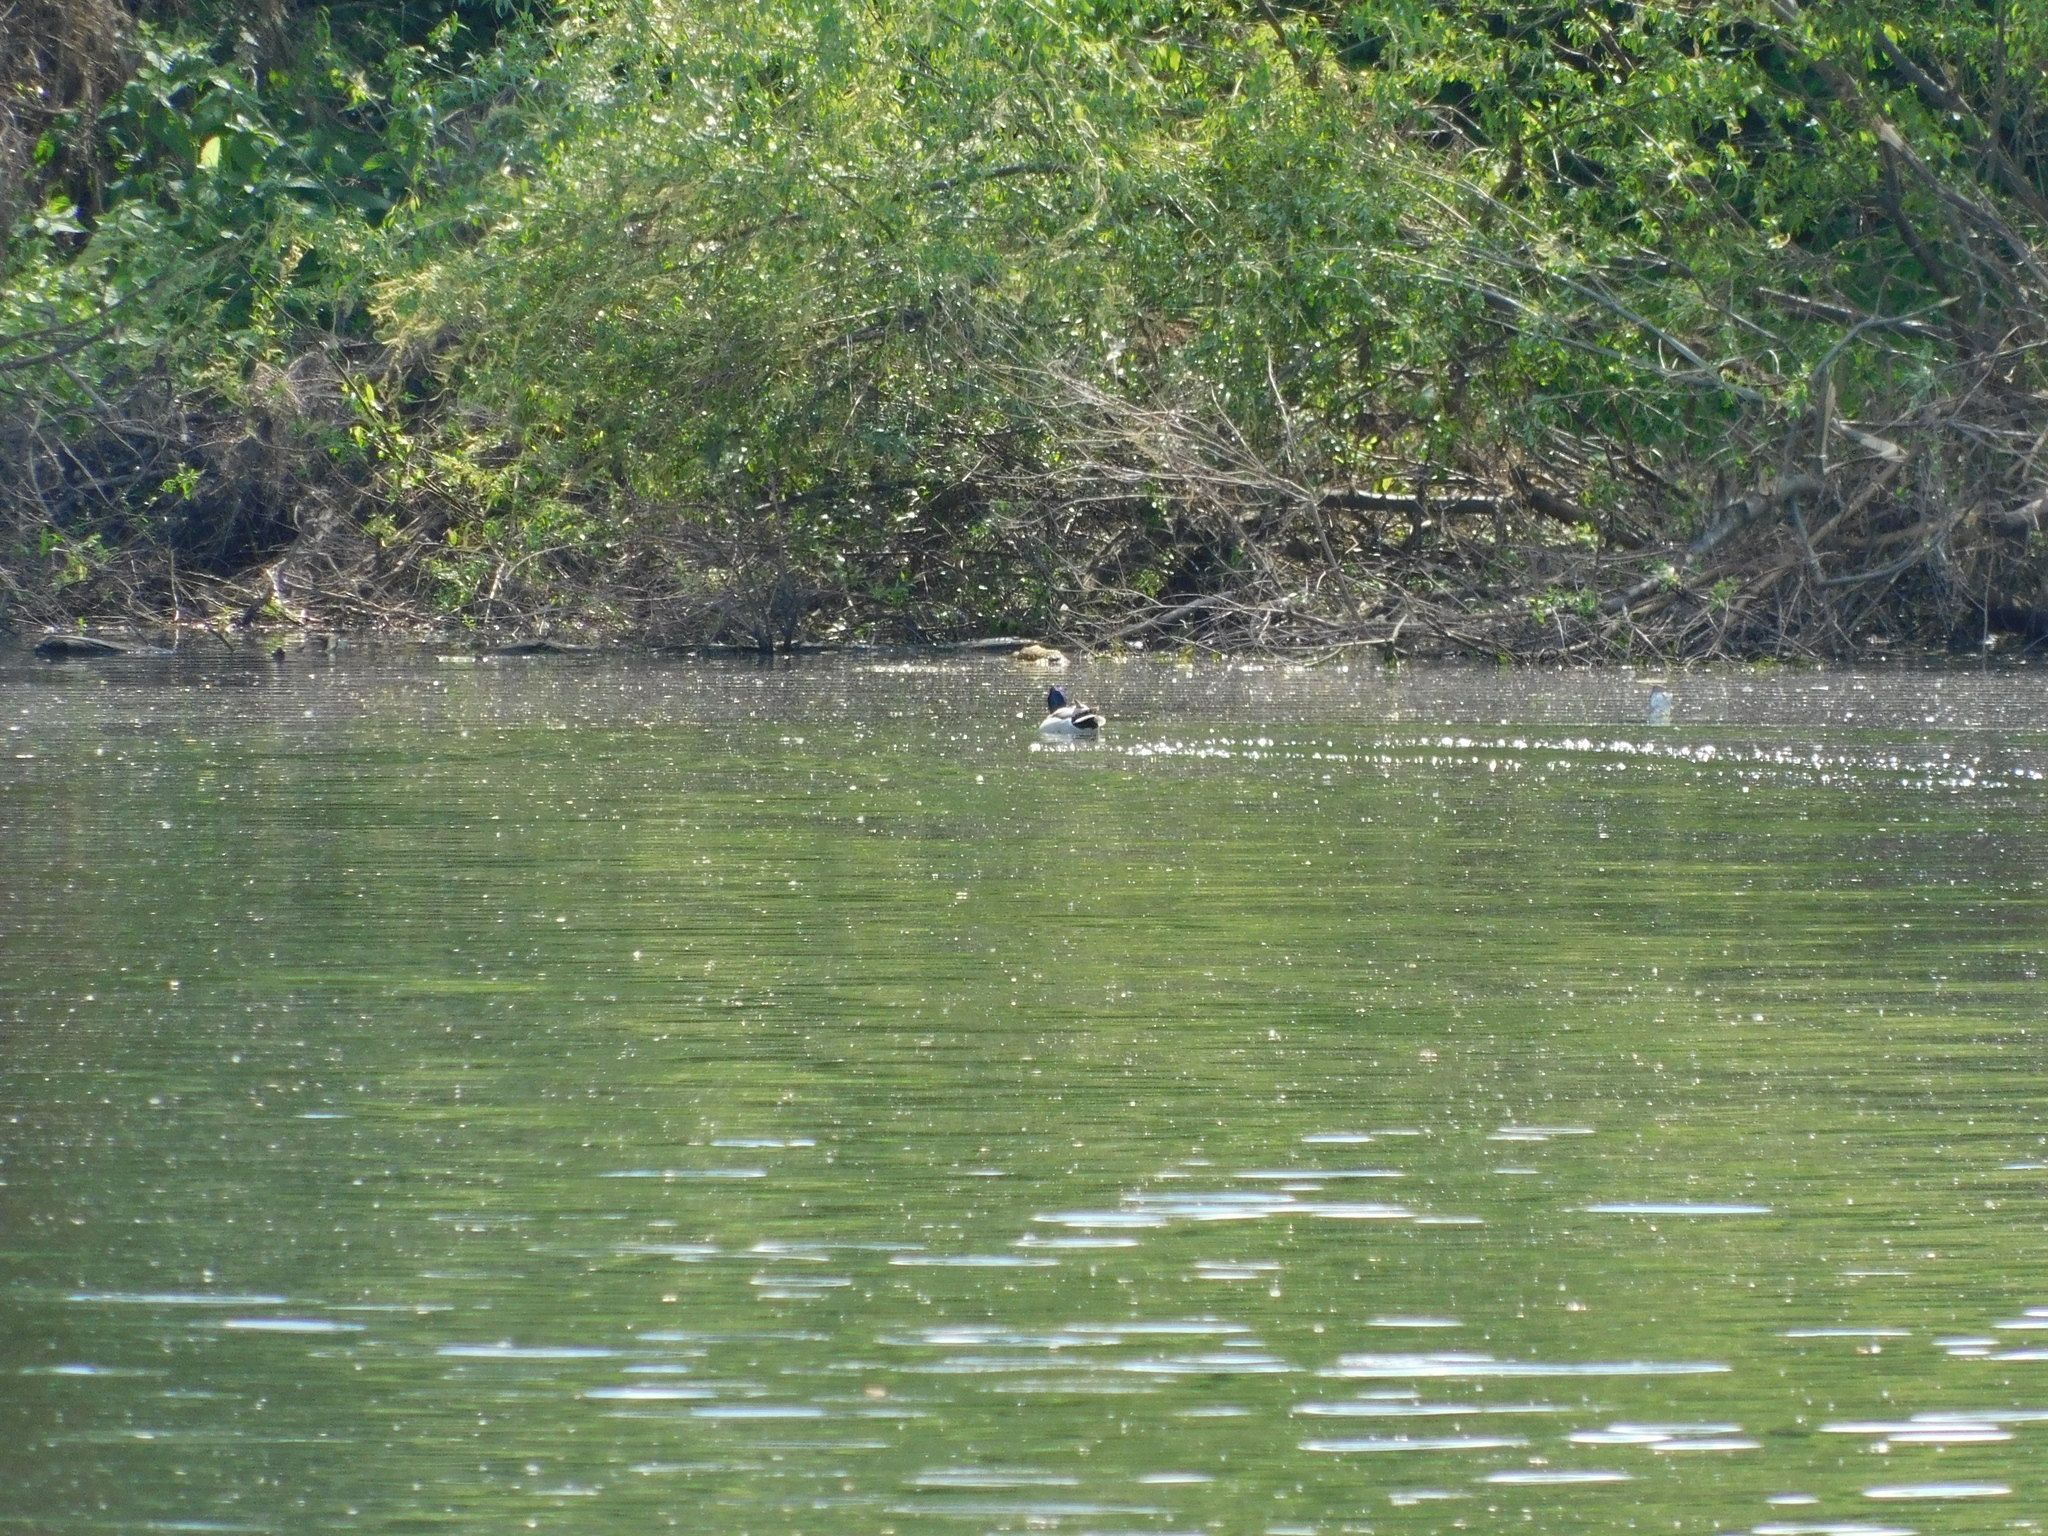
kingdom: Animalia
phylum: Chordata
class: Aves
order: Anseriformes
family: Anatidae
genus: Anas
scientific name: Anas platyrhynchos
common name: Mallard
